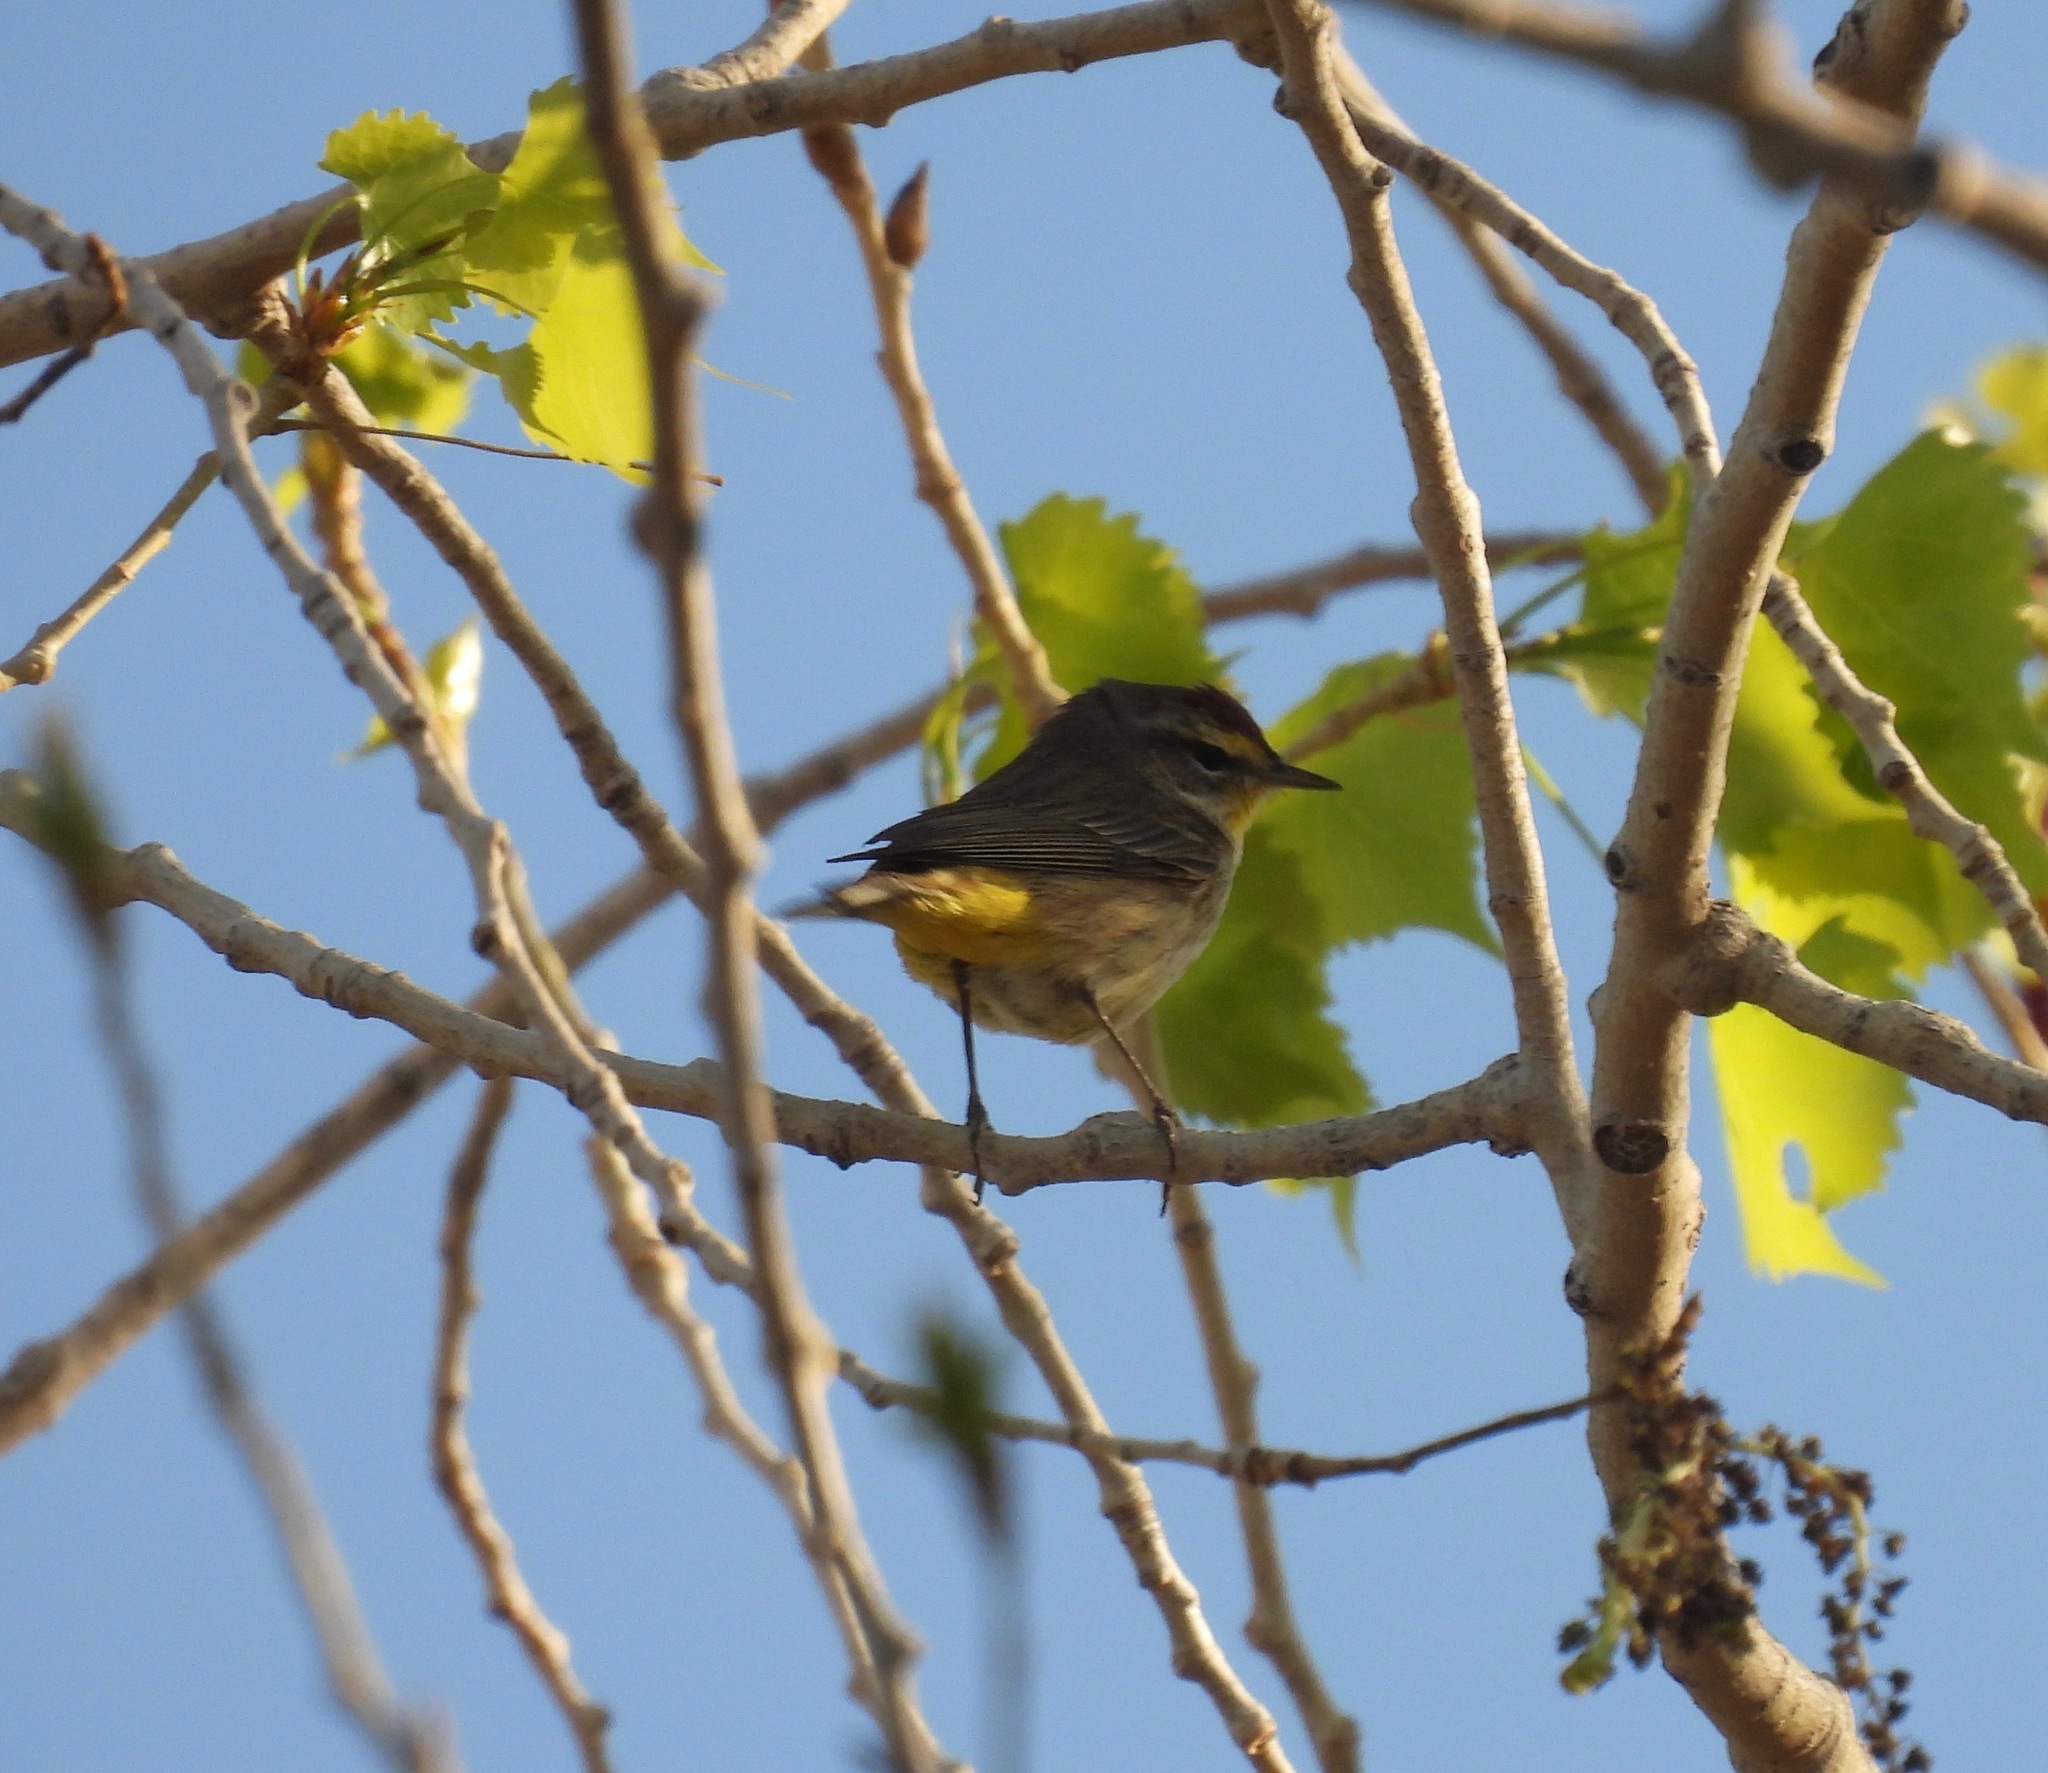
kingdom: Animalia
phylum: Chordata
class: Aves
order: Passeriformes
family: Parulidae
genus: Setophaga
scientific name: Setophaga palmarum
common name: Palm warbler
